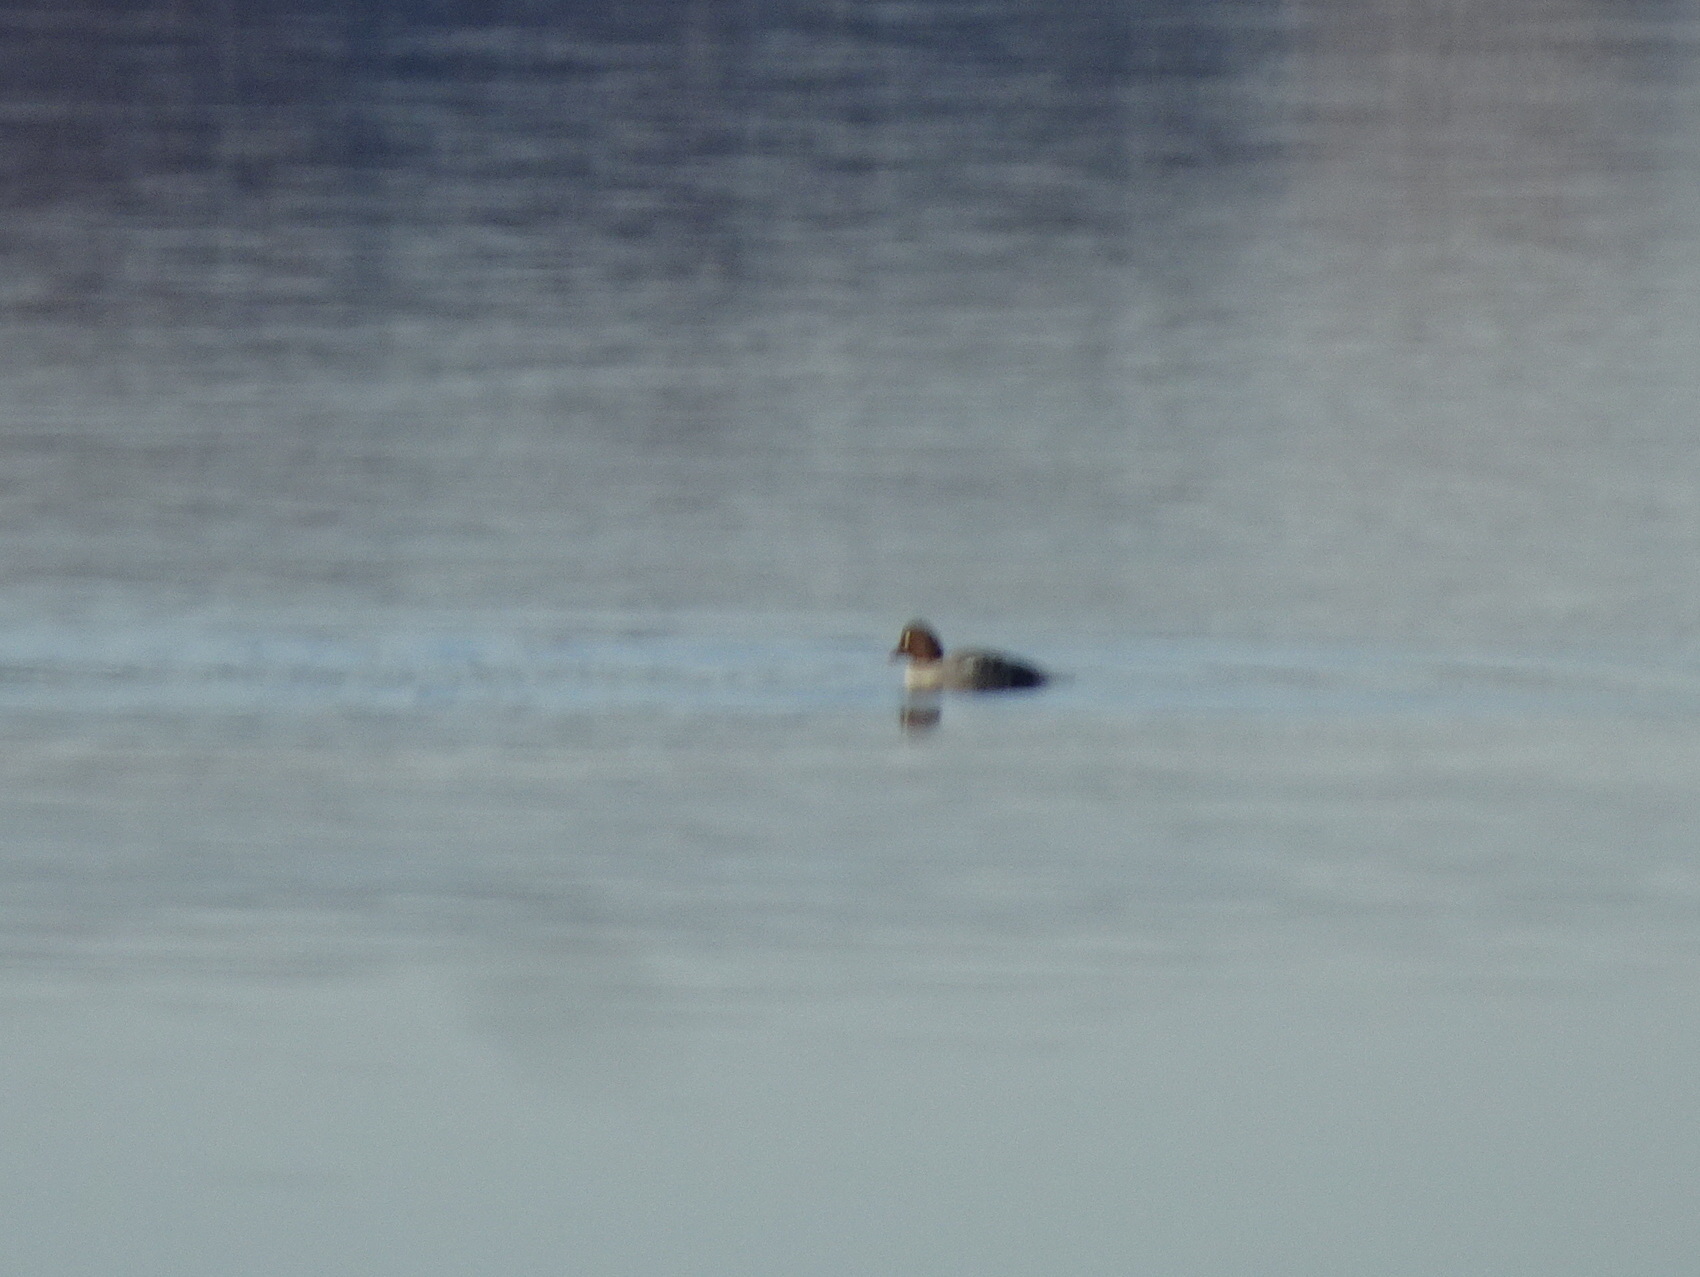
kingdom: Animalia
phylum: Chordata
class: Aves
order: Anseriformes
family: Anatidae
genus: Bucephala
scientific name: Bucephala clangula
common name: Common goldeneye
